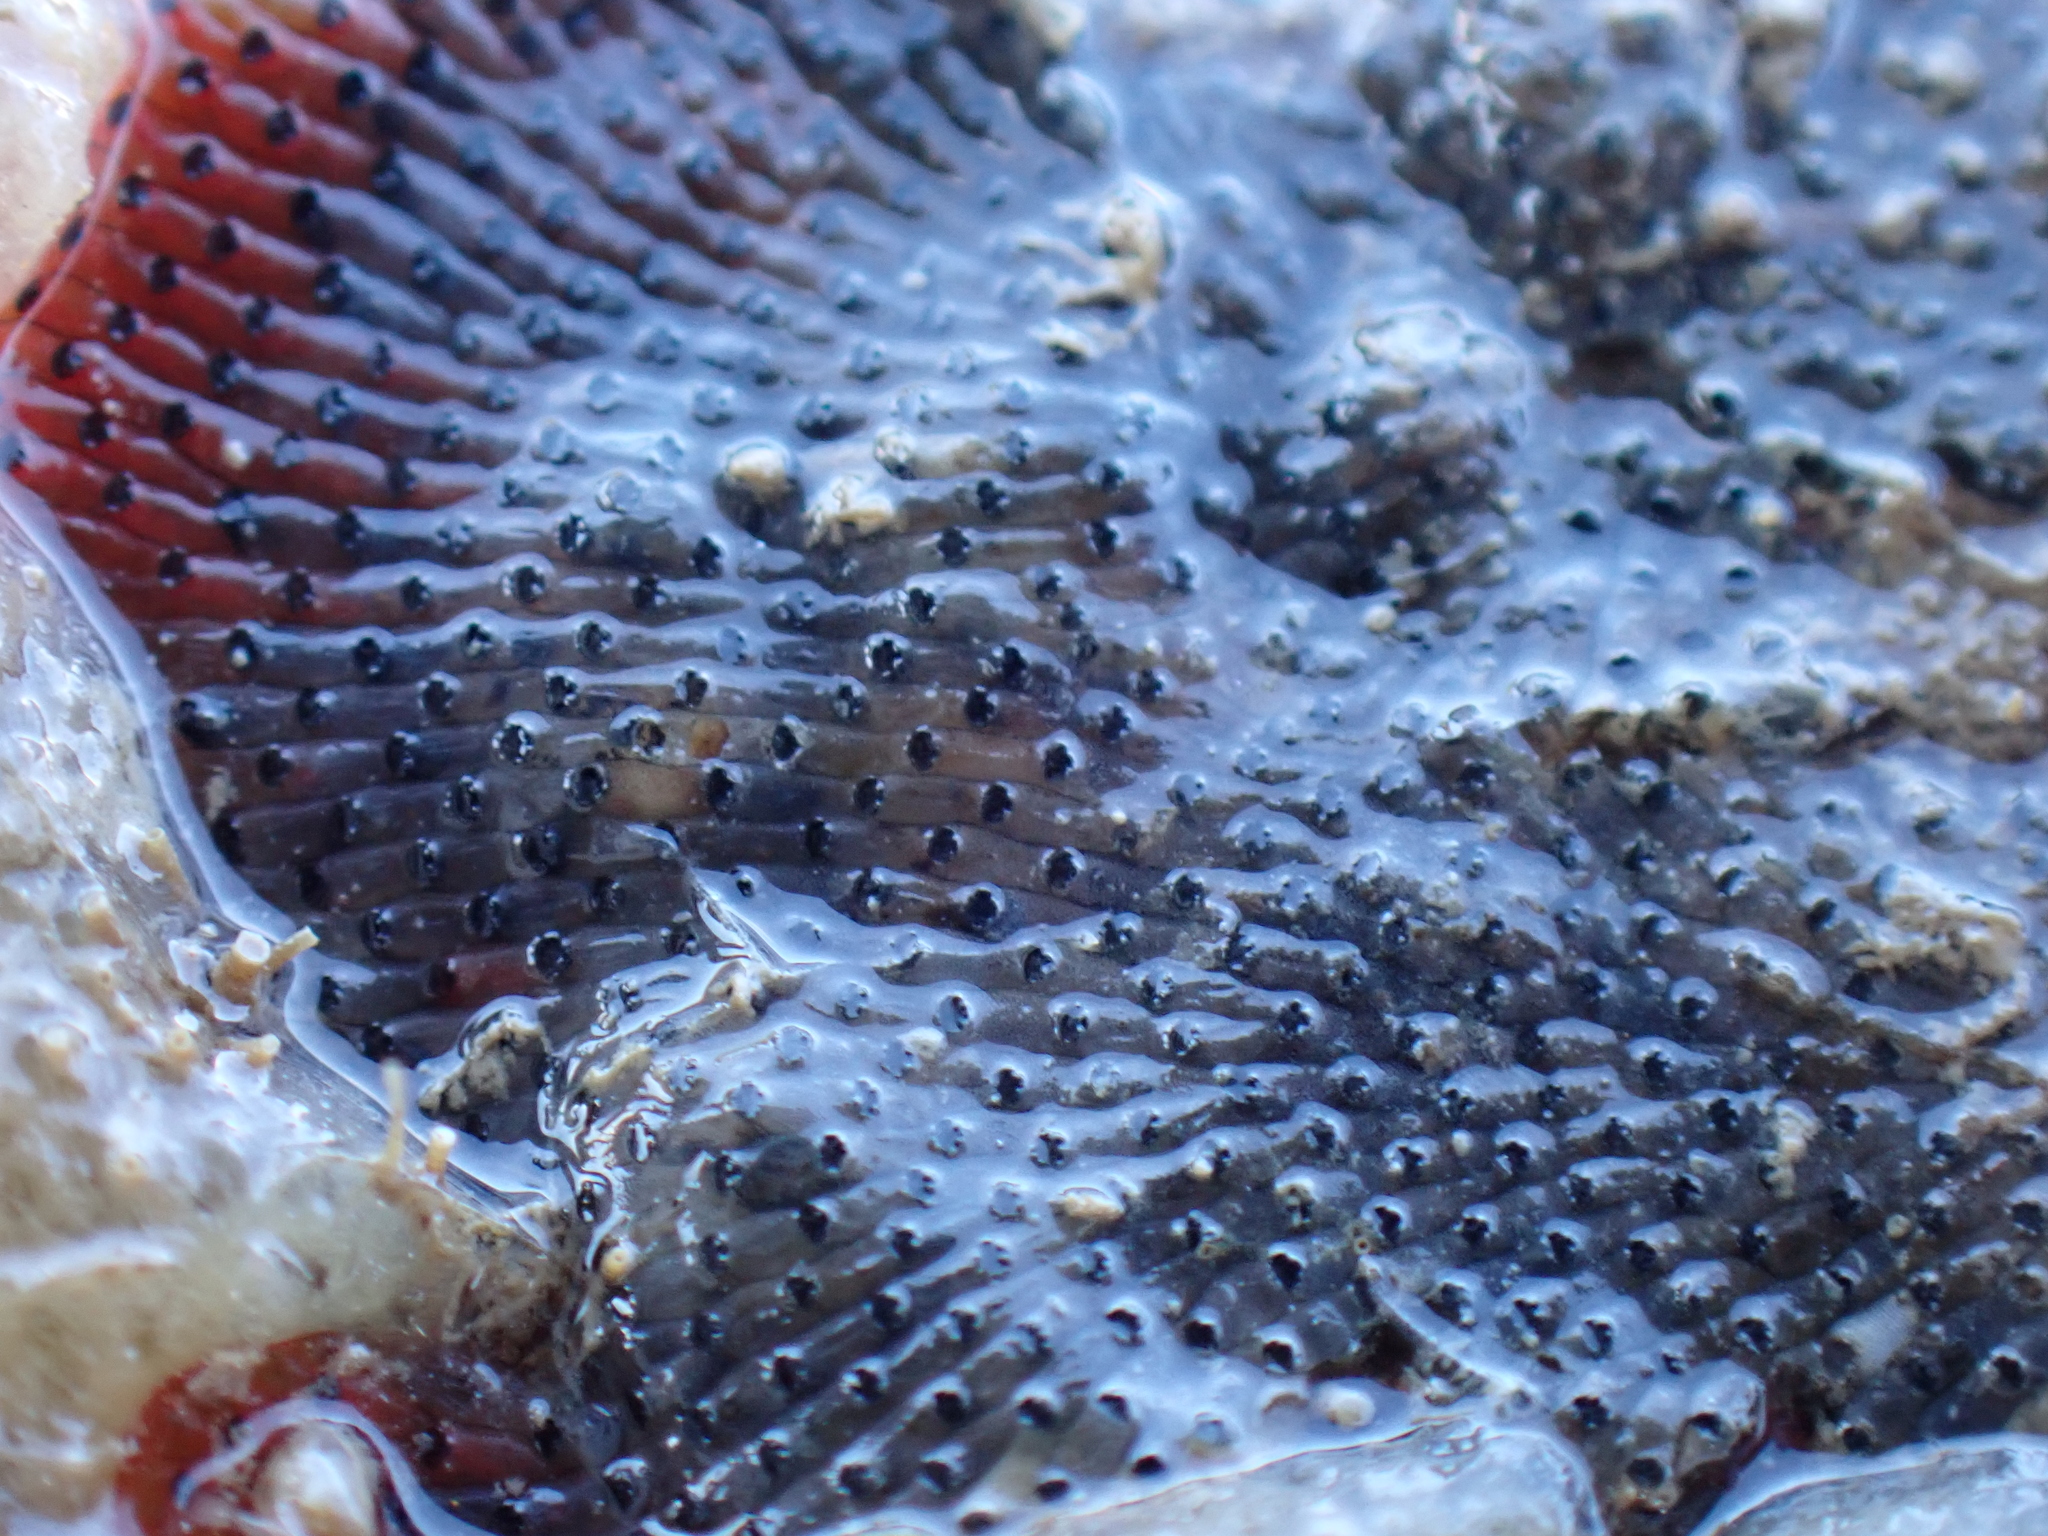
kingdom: Animalia
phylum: Bryozoa
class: Gymnolaemata
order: Cheilostomatida
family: Watersiporidae
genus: Watersipora
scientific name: Watersipora subatra
